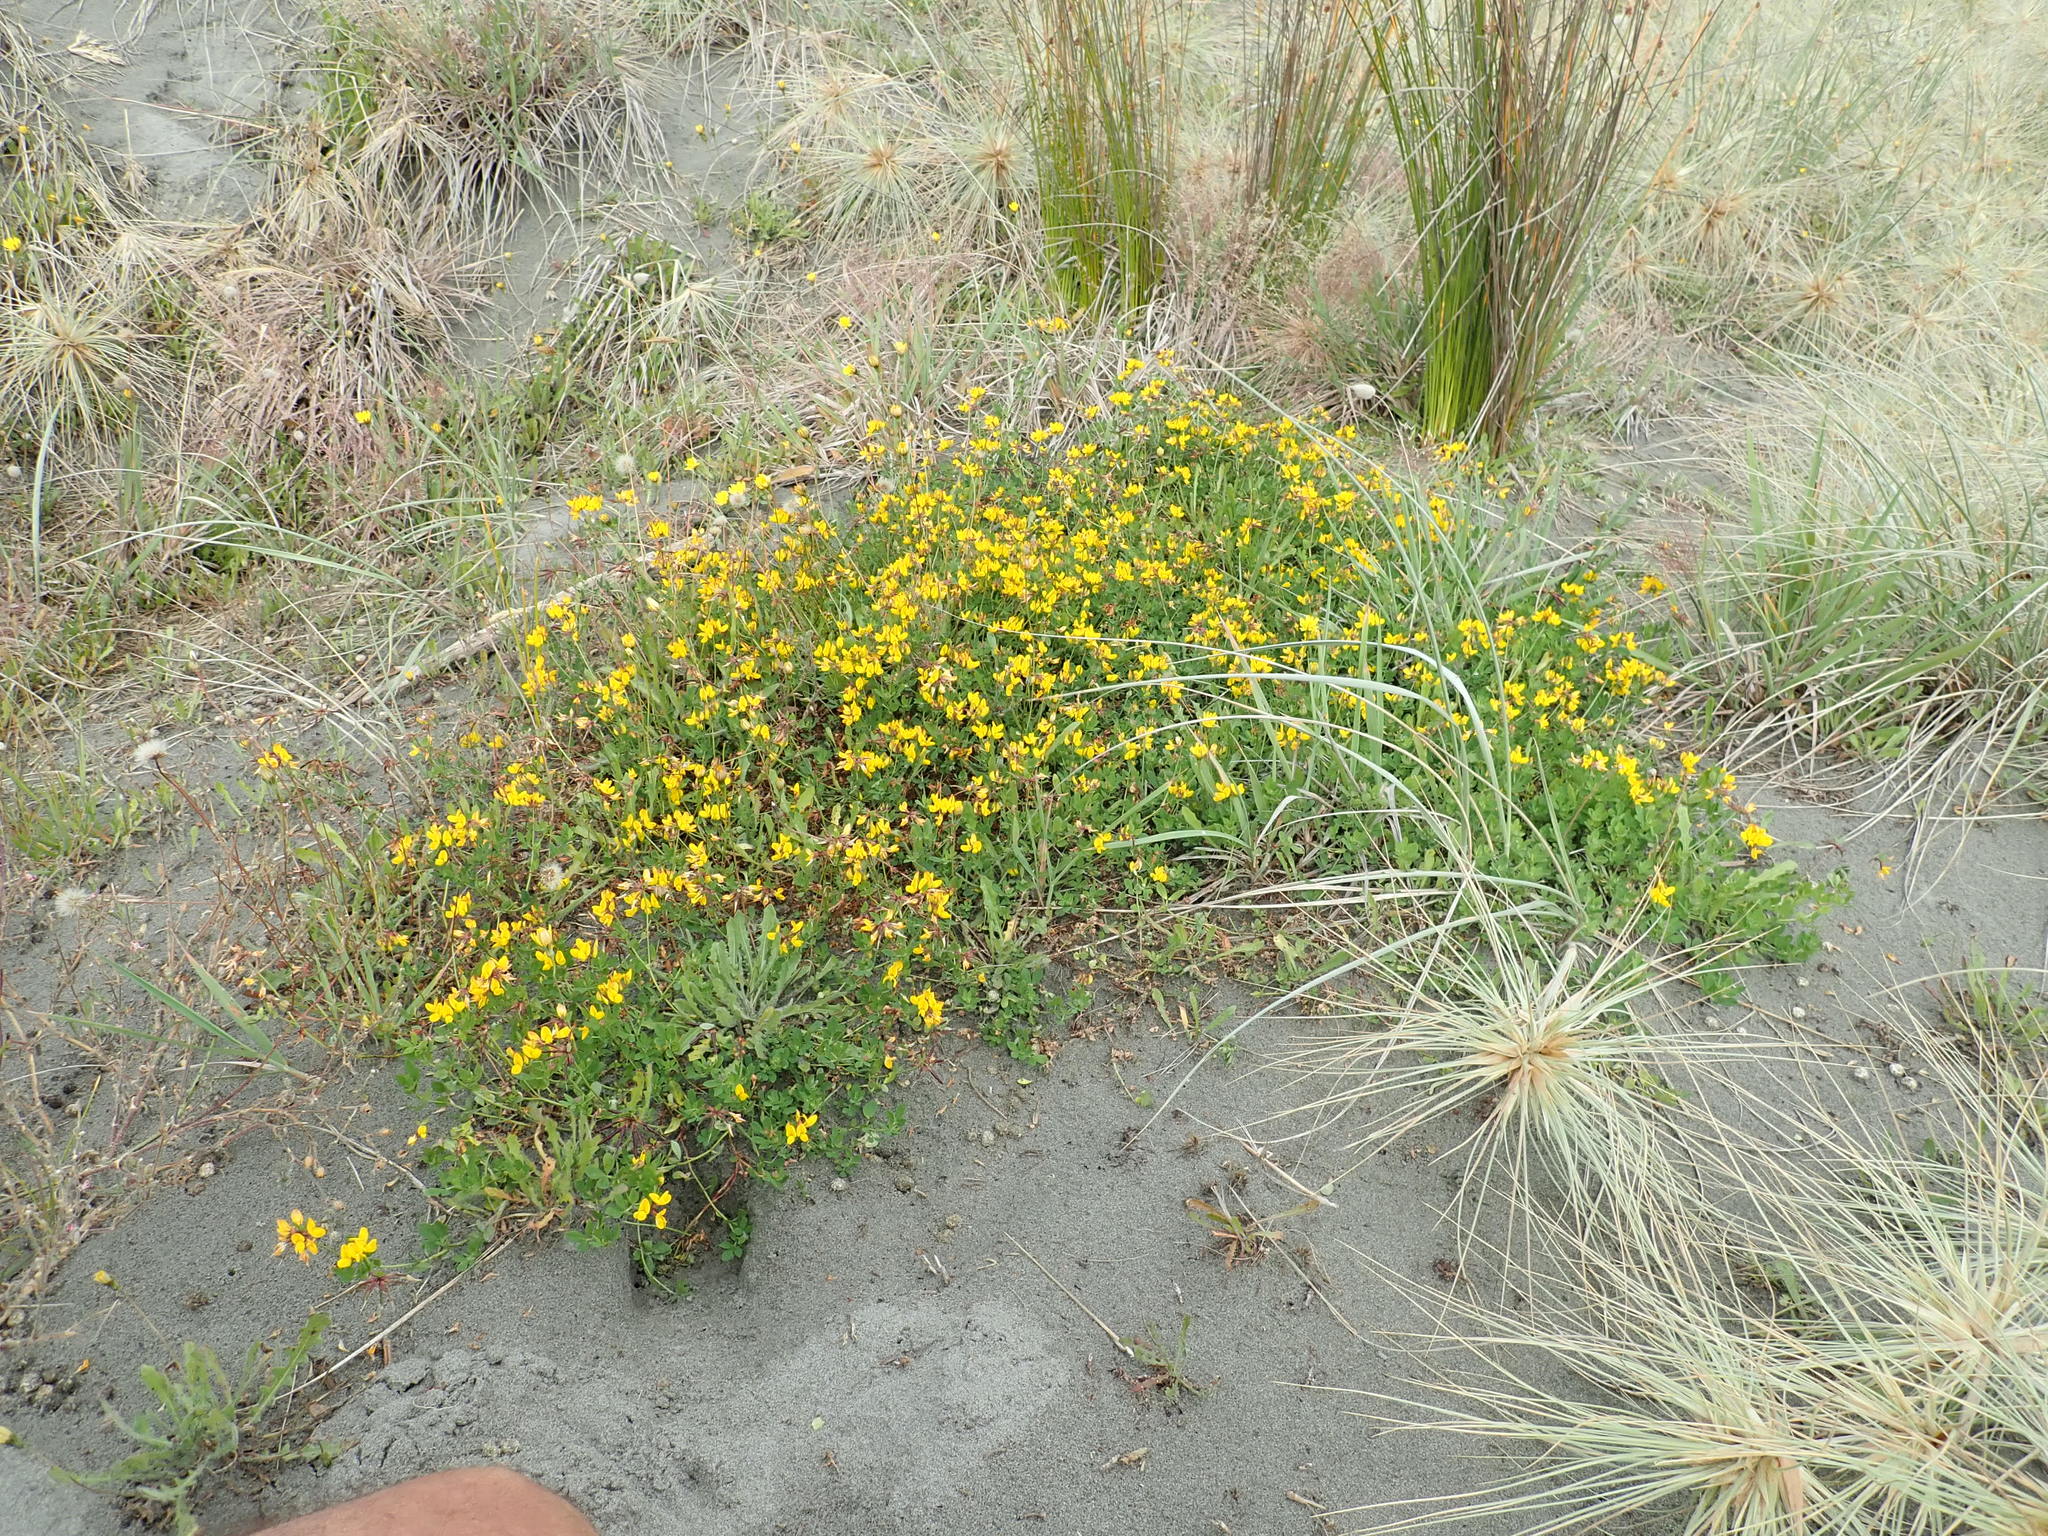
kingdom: Plantae
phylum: Tracheophyta
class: Magnoliopsida
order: Fabales
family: Fabaceae
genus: Lotus
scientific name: Lotus pedunculatus
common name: Greater birdsfoot-trefoil
